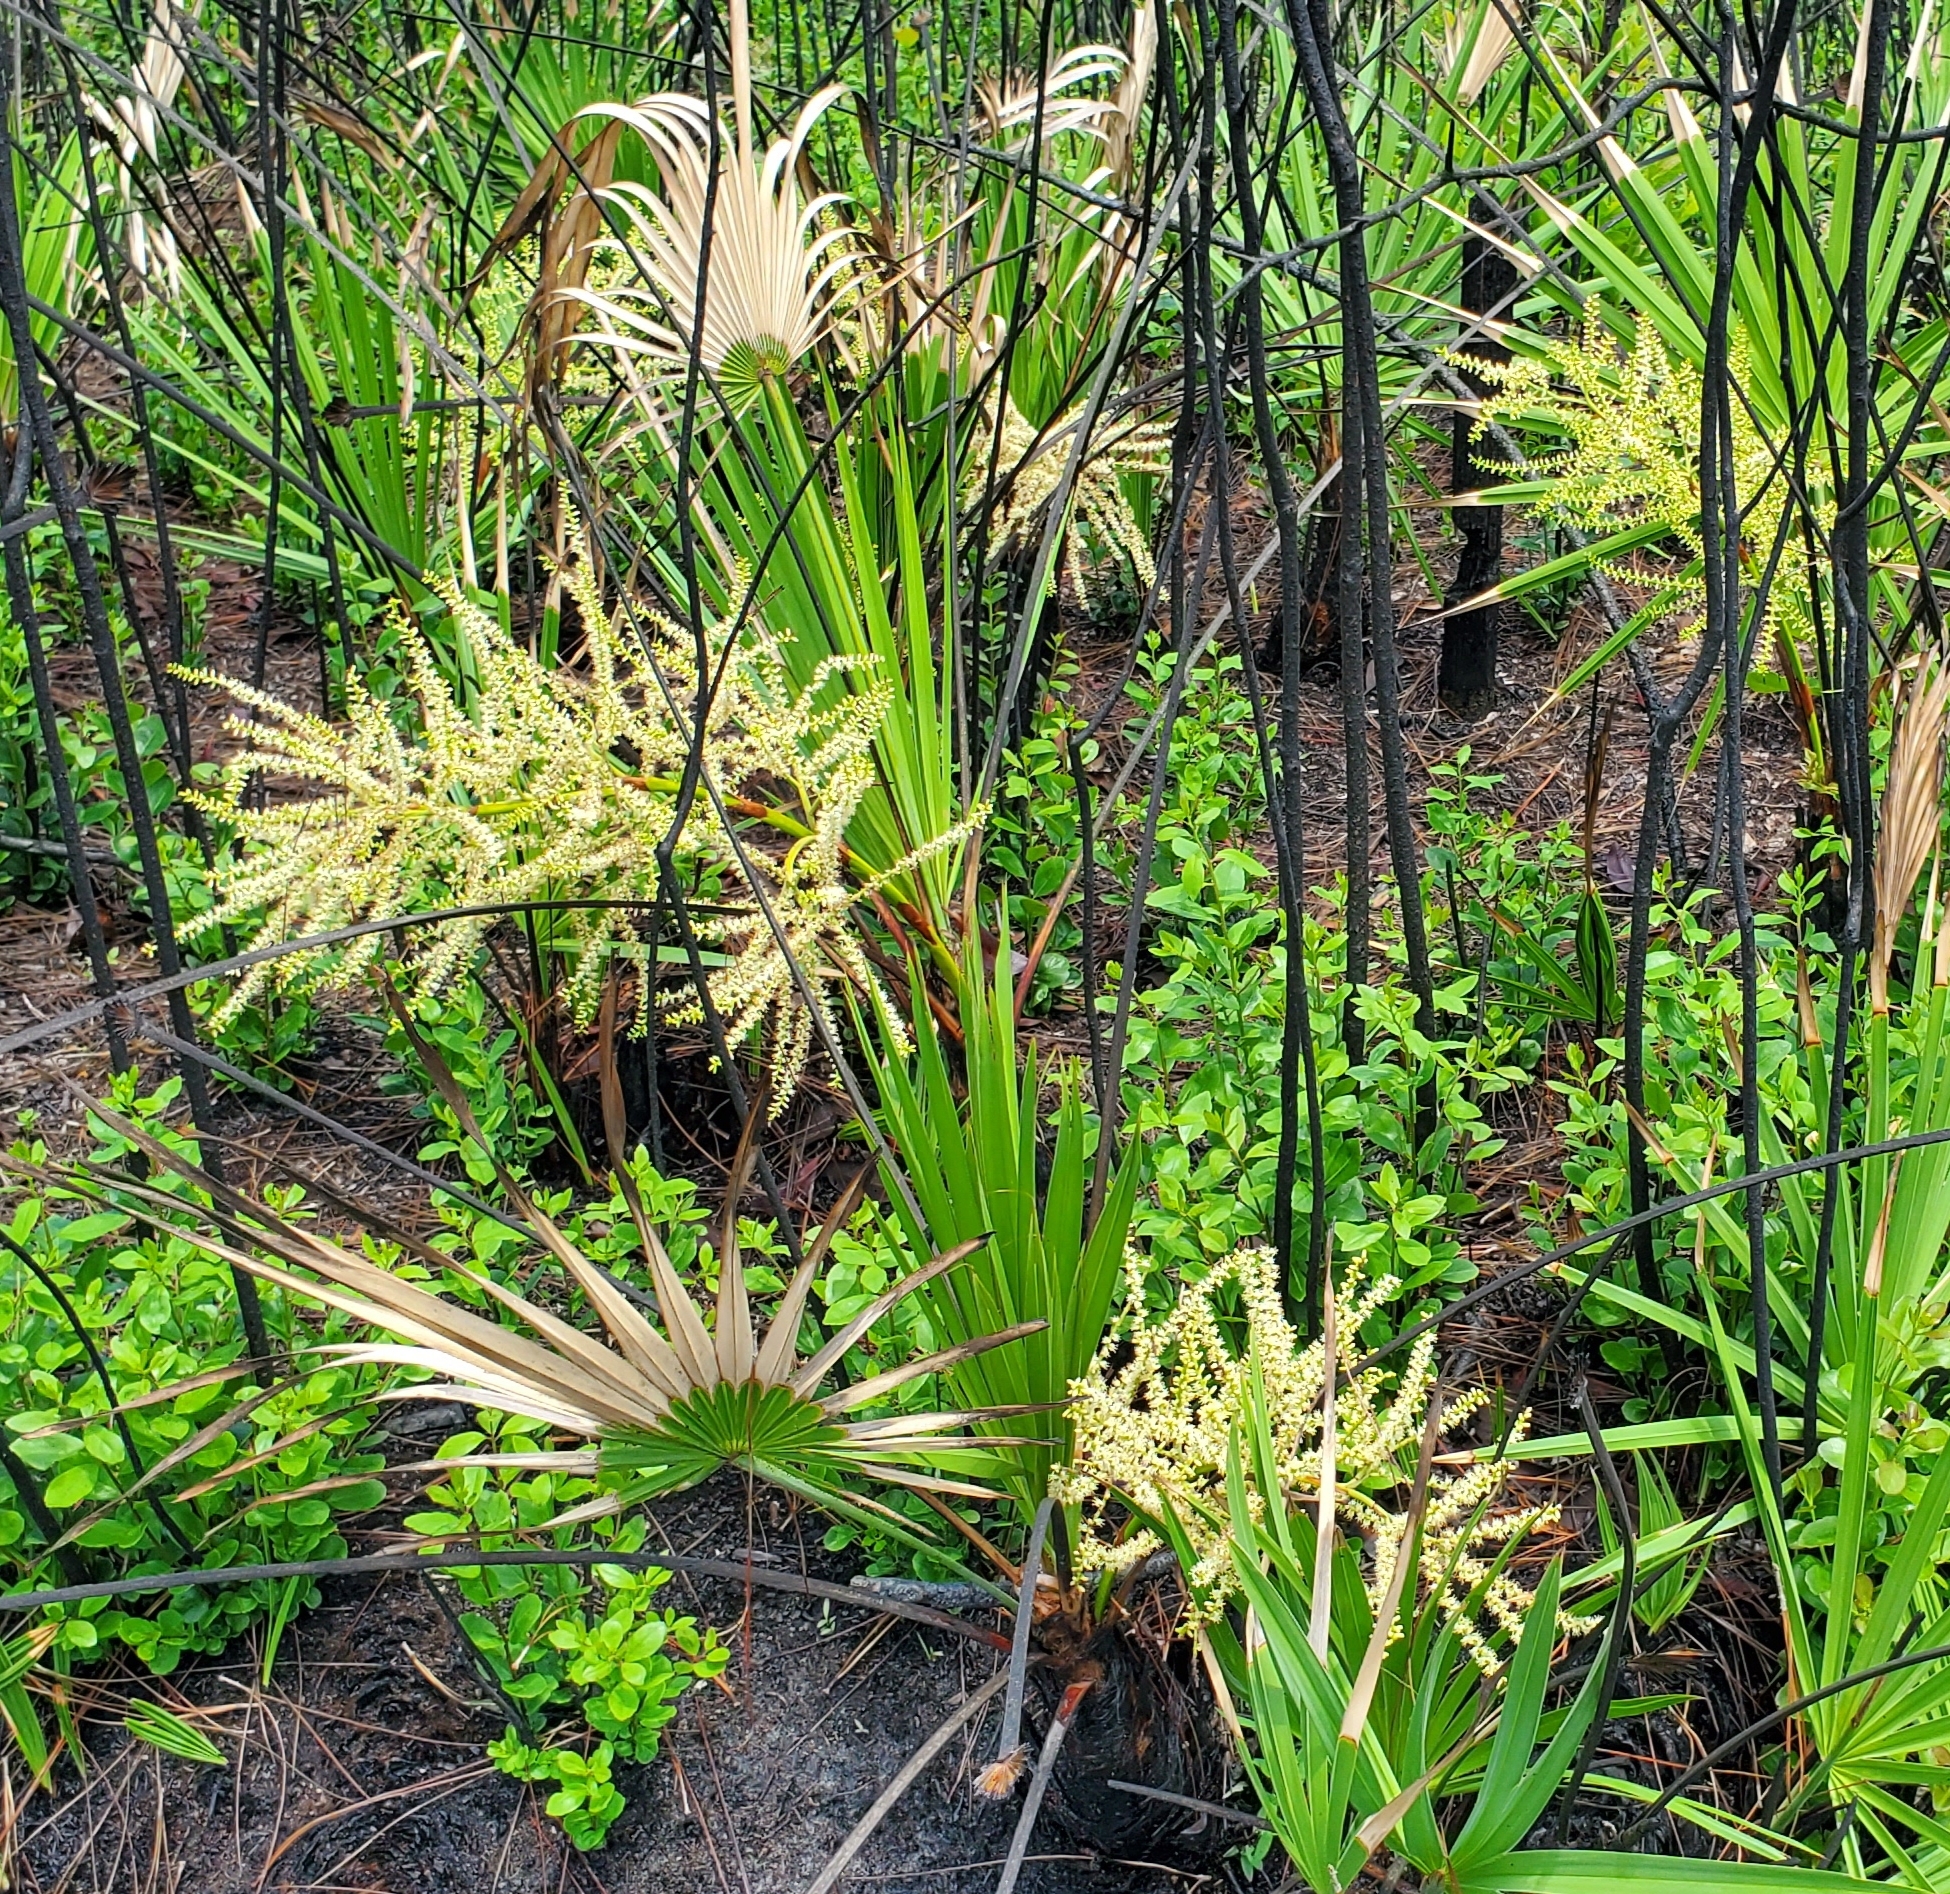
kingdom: Plantae
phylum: Tracheophyta
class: Liliopsida
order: Arecales
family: Arecaceae
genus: Serenoa
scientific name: Serenoa repens
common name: Saw-palmetto
